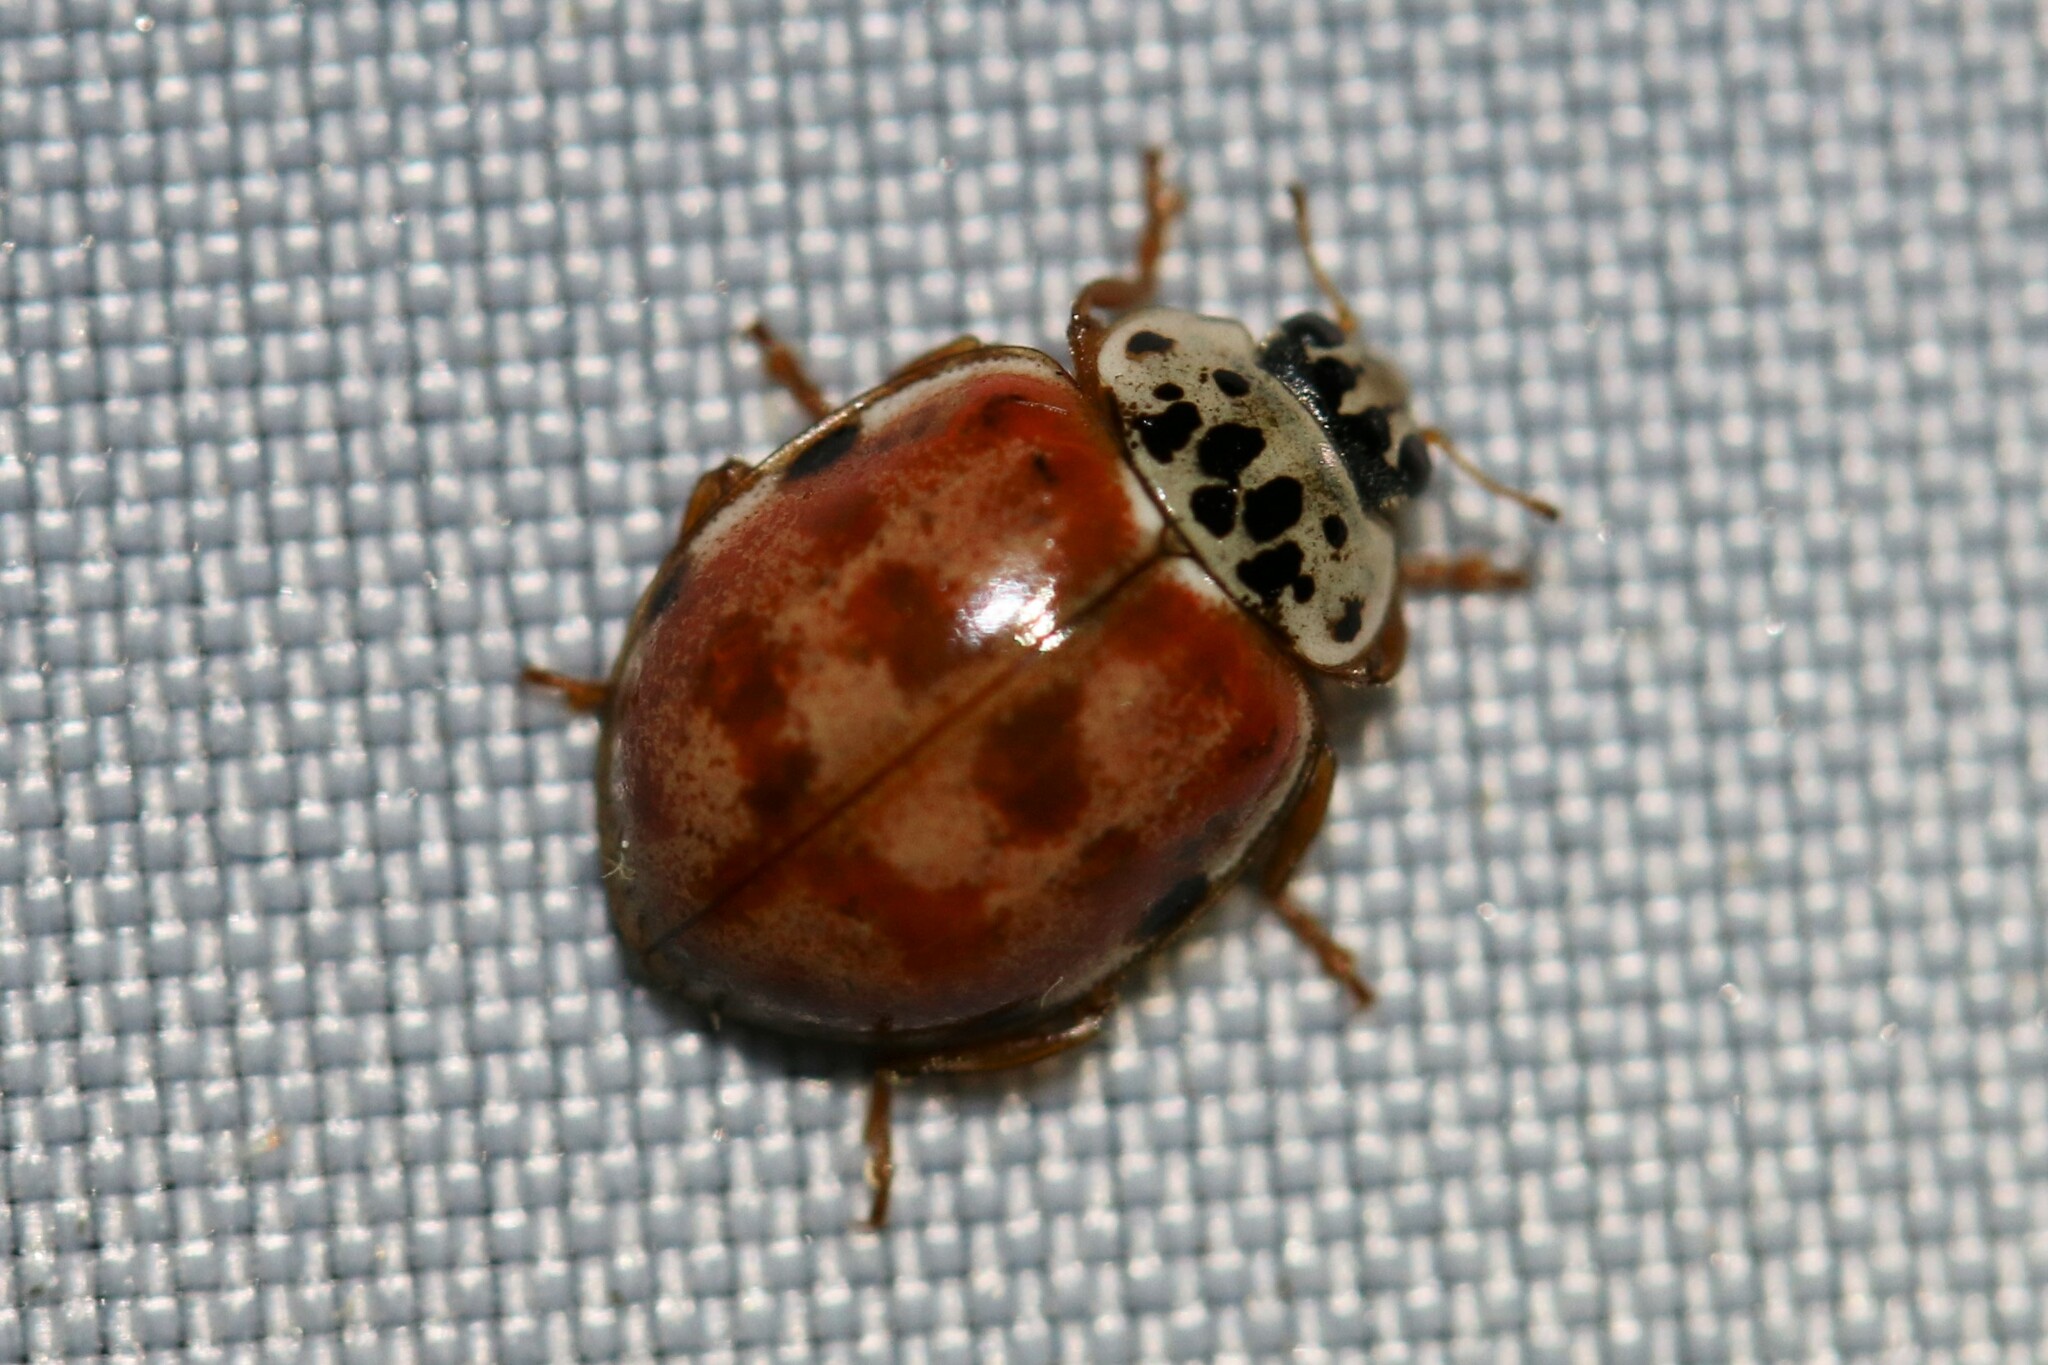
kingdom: Animalia
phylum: Arthropoda
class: Insecta
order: Coleoptera
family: Coccinellidae
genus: Harmonia
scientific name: Harmonia quadripunctata
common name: Cream-streaked ladybird
